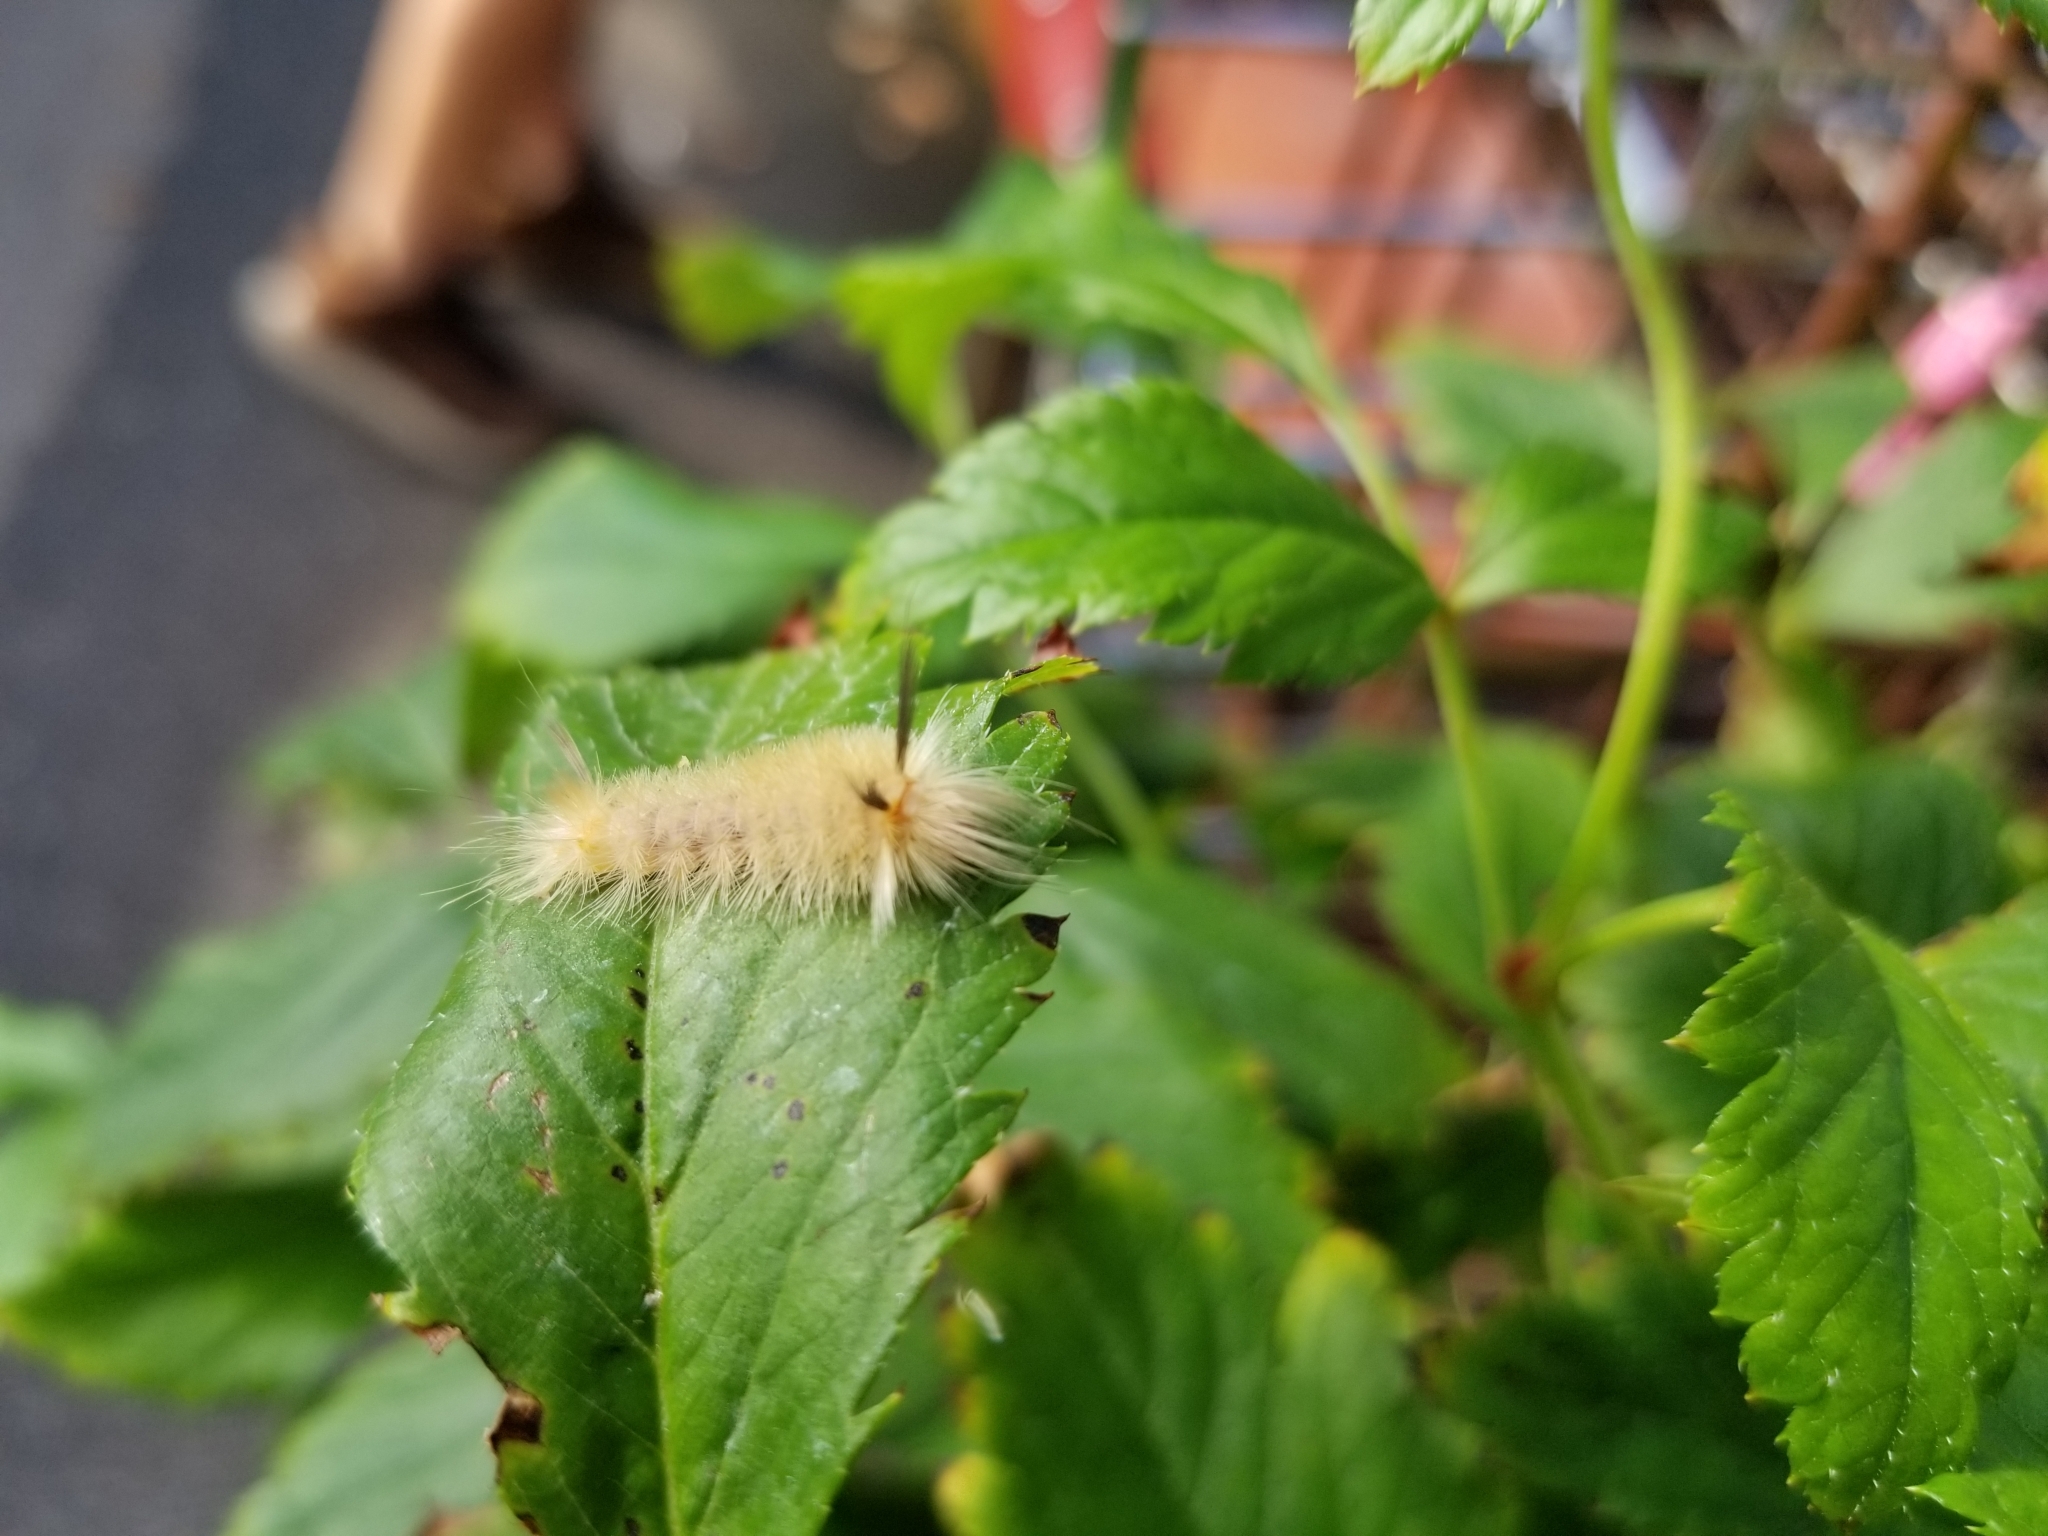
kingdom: Animalia
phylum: Arthropoda
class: Insecta
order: Lepidoptera
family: Erebidae
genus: Halysidota
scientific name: Halysidota tessellaris
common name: Banded tussock moth
